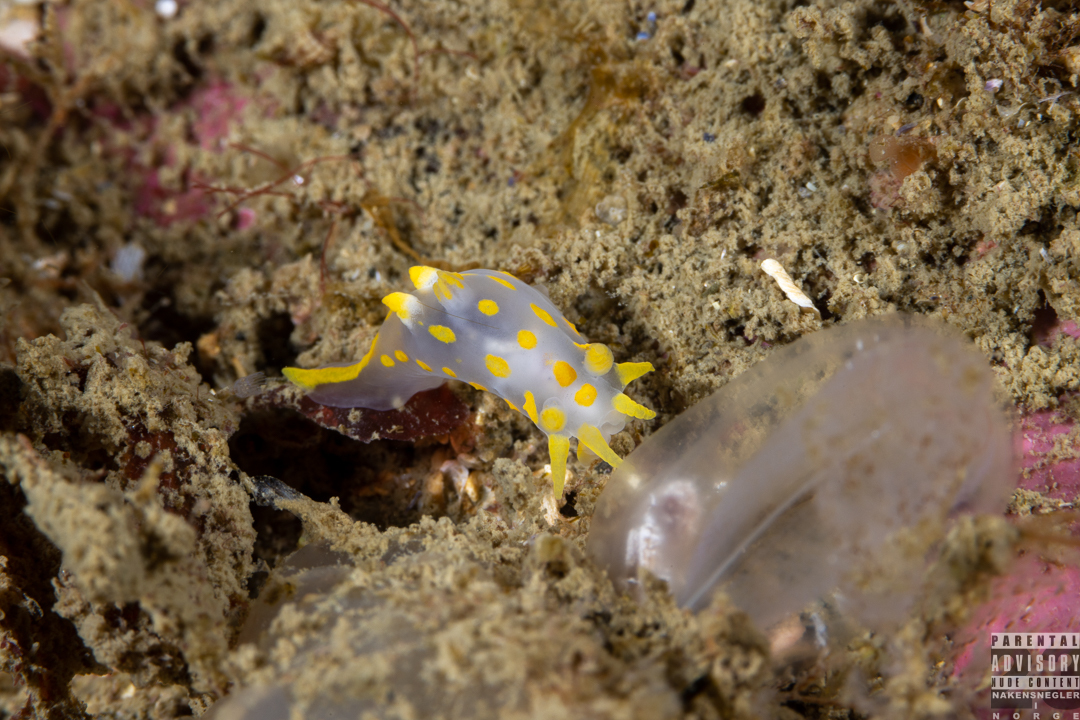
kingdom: Animalia
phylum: Mollusca
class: Gastropoda
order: Nudibranchia
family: Polyceridae
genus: Polycera
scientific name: Polycera norvegica
